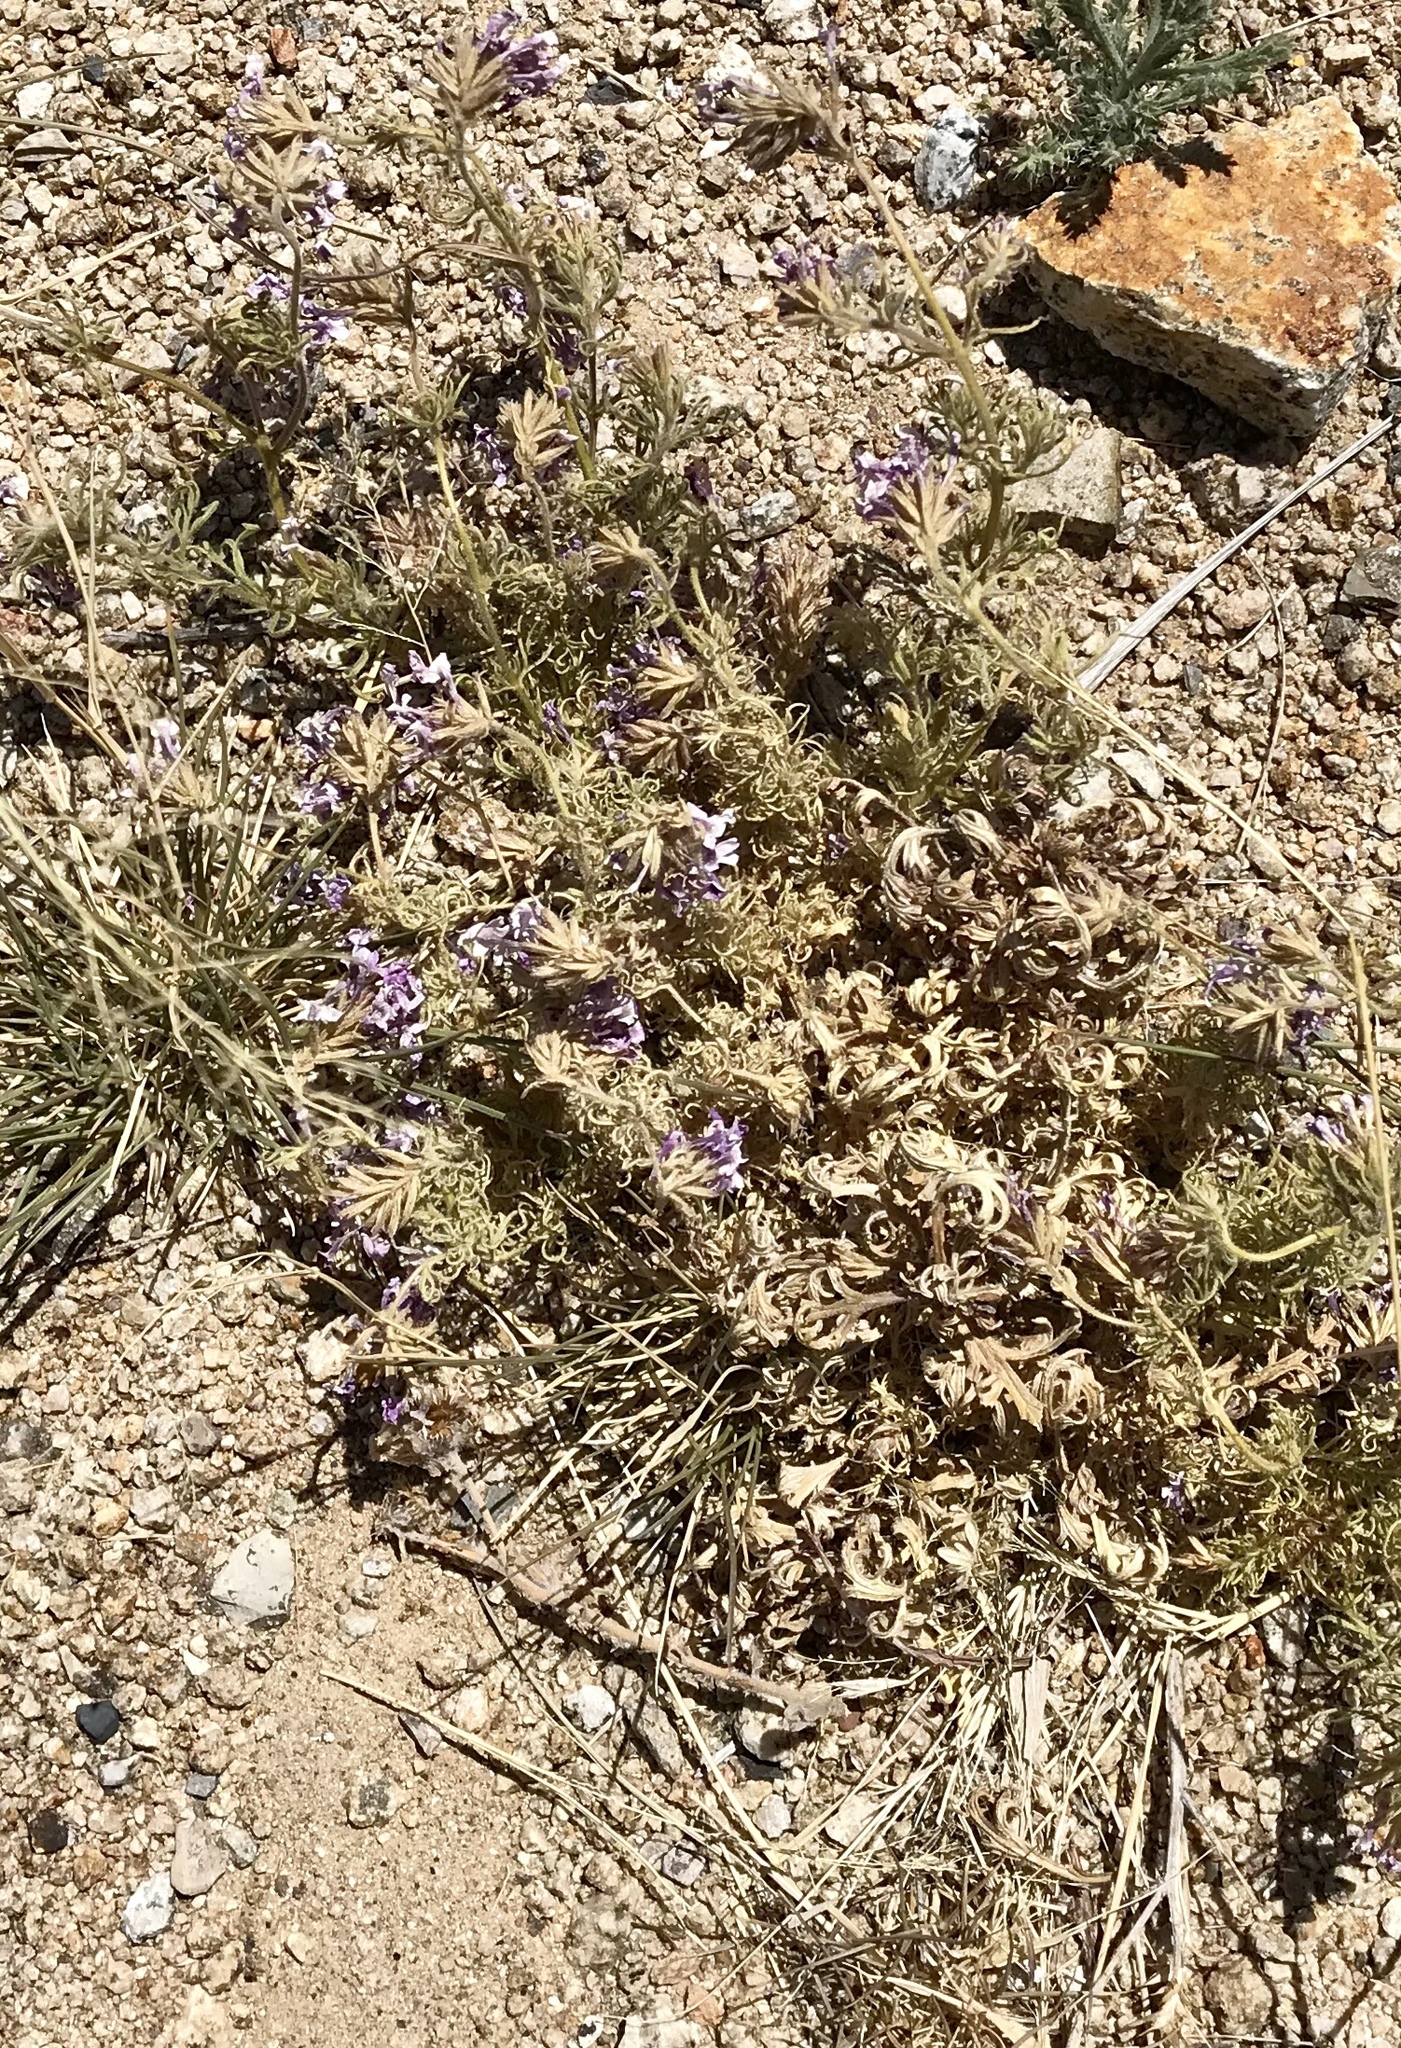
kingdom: Plantae
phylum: Tracheophyta
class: Magnoliopsida
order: Lamiales
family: Verbenaceae
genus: Verbena
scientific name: Verbena bipinnatifida
